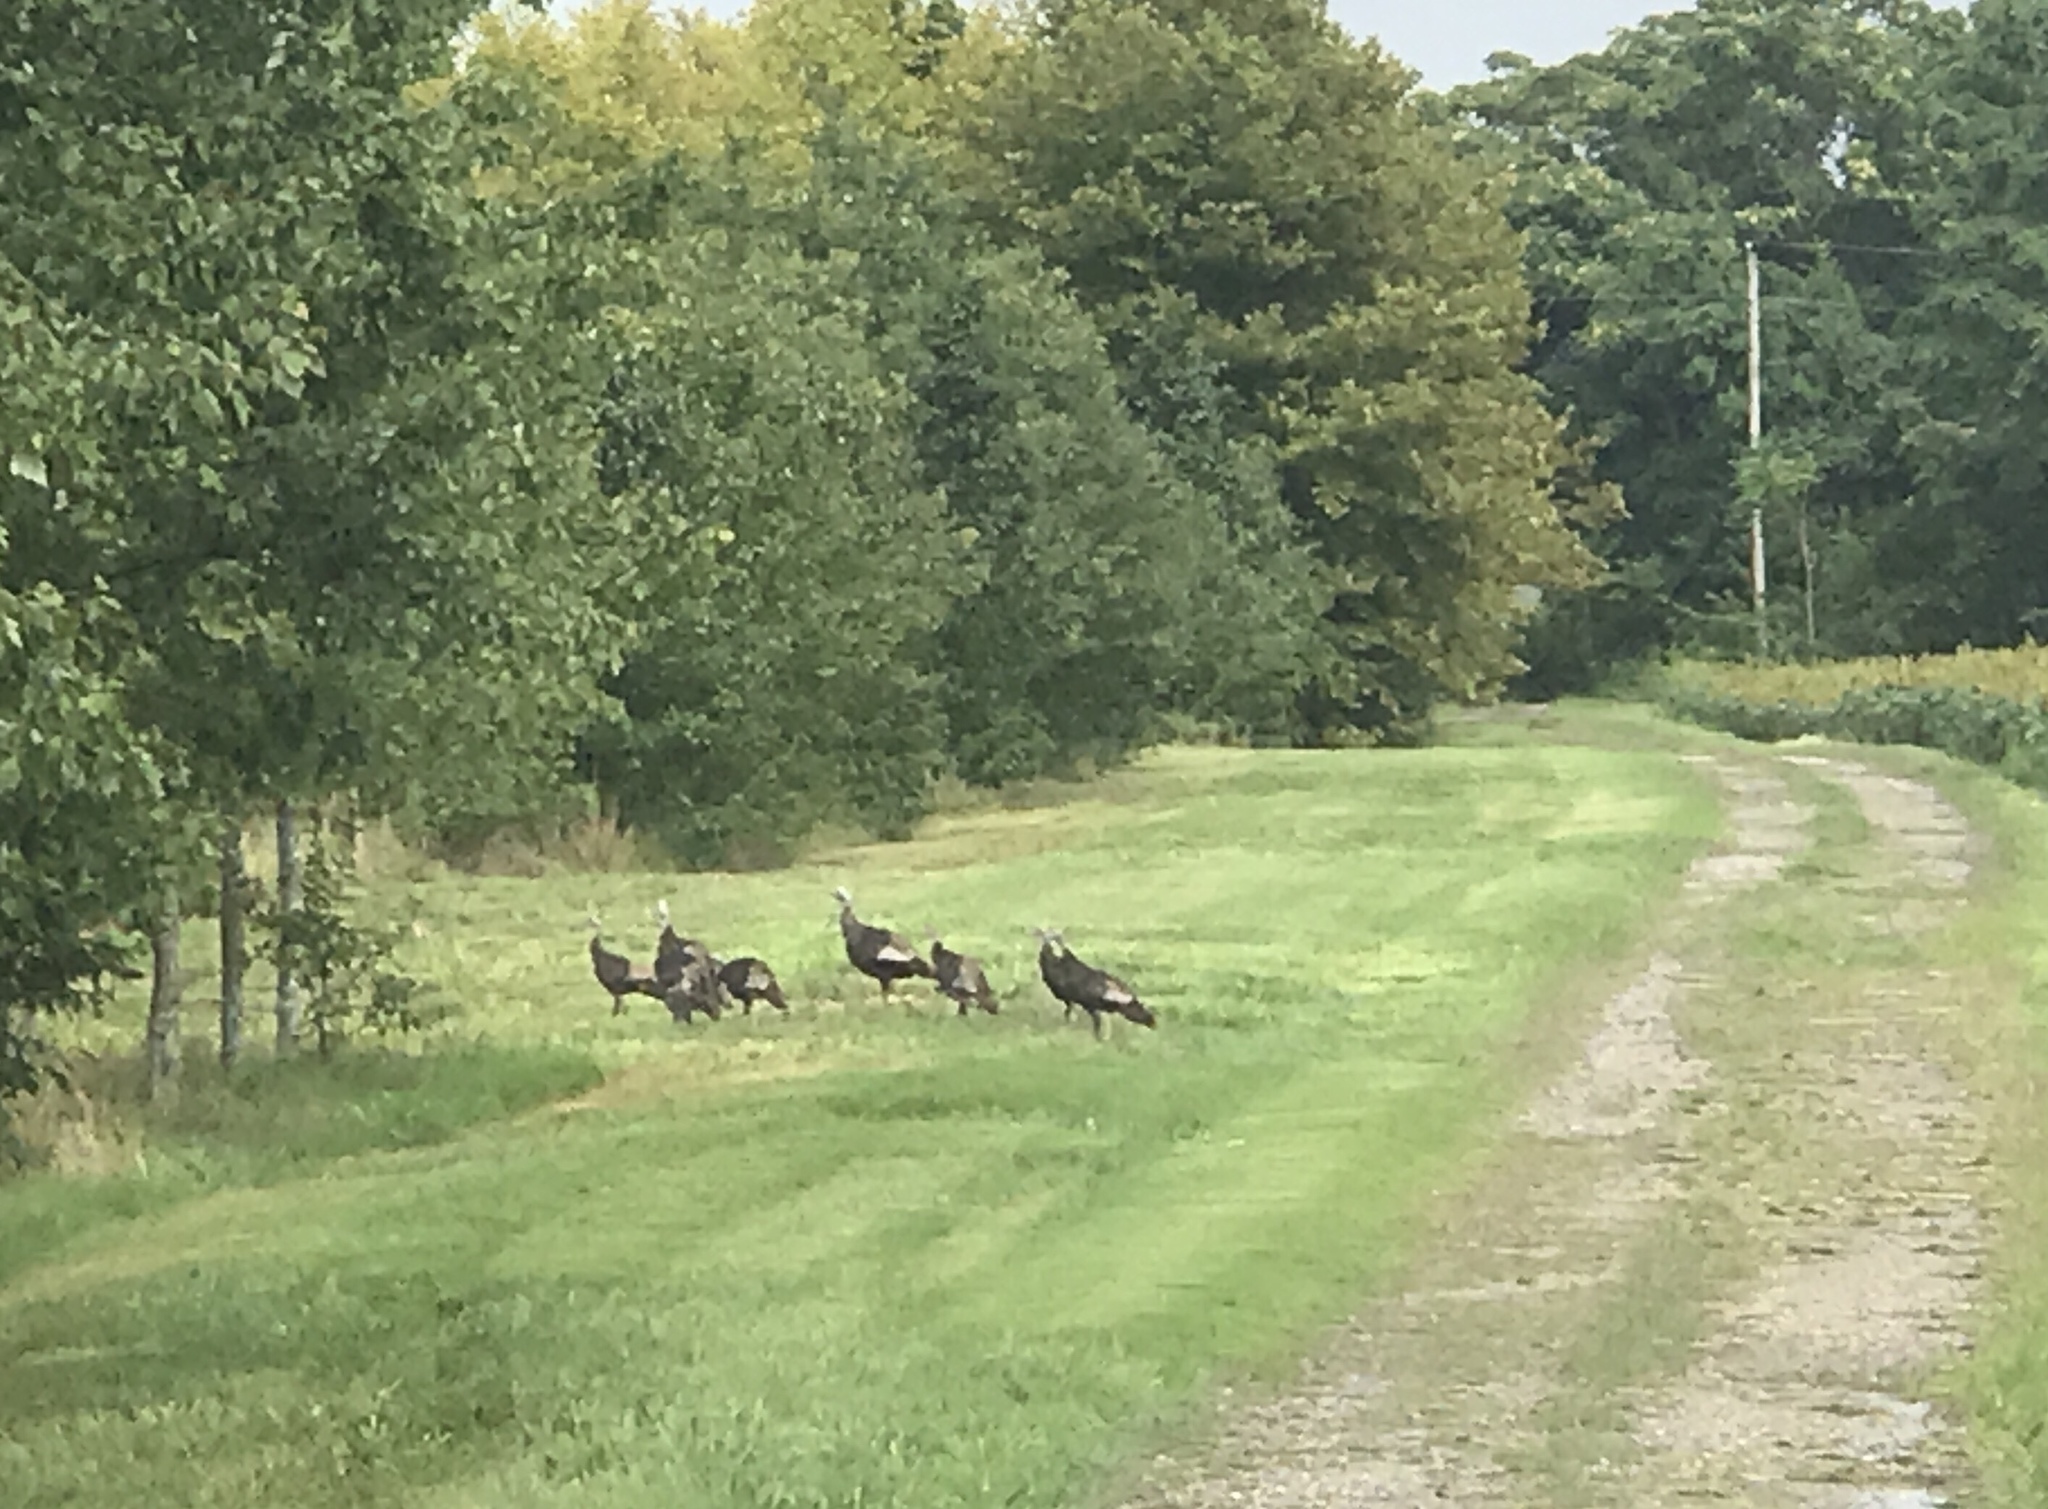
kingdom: Animalia
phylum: Chordata
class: Aves
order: Galliformes
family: Phasianidae
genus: Meleagris
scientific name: Meleagris gallopavo
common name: Wild turkey
